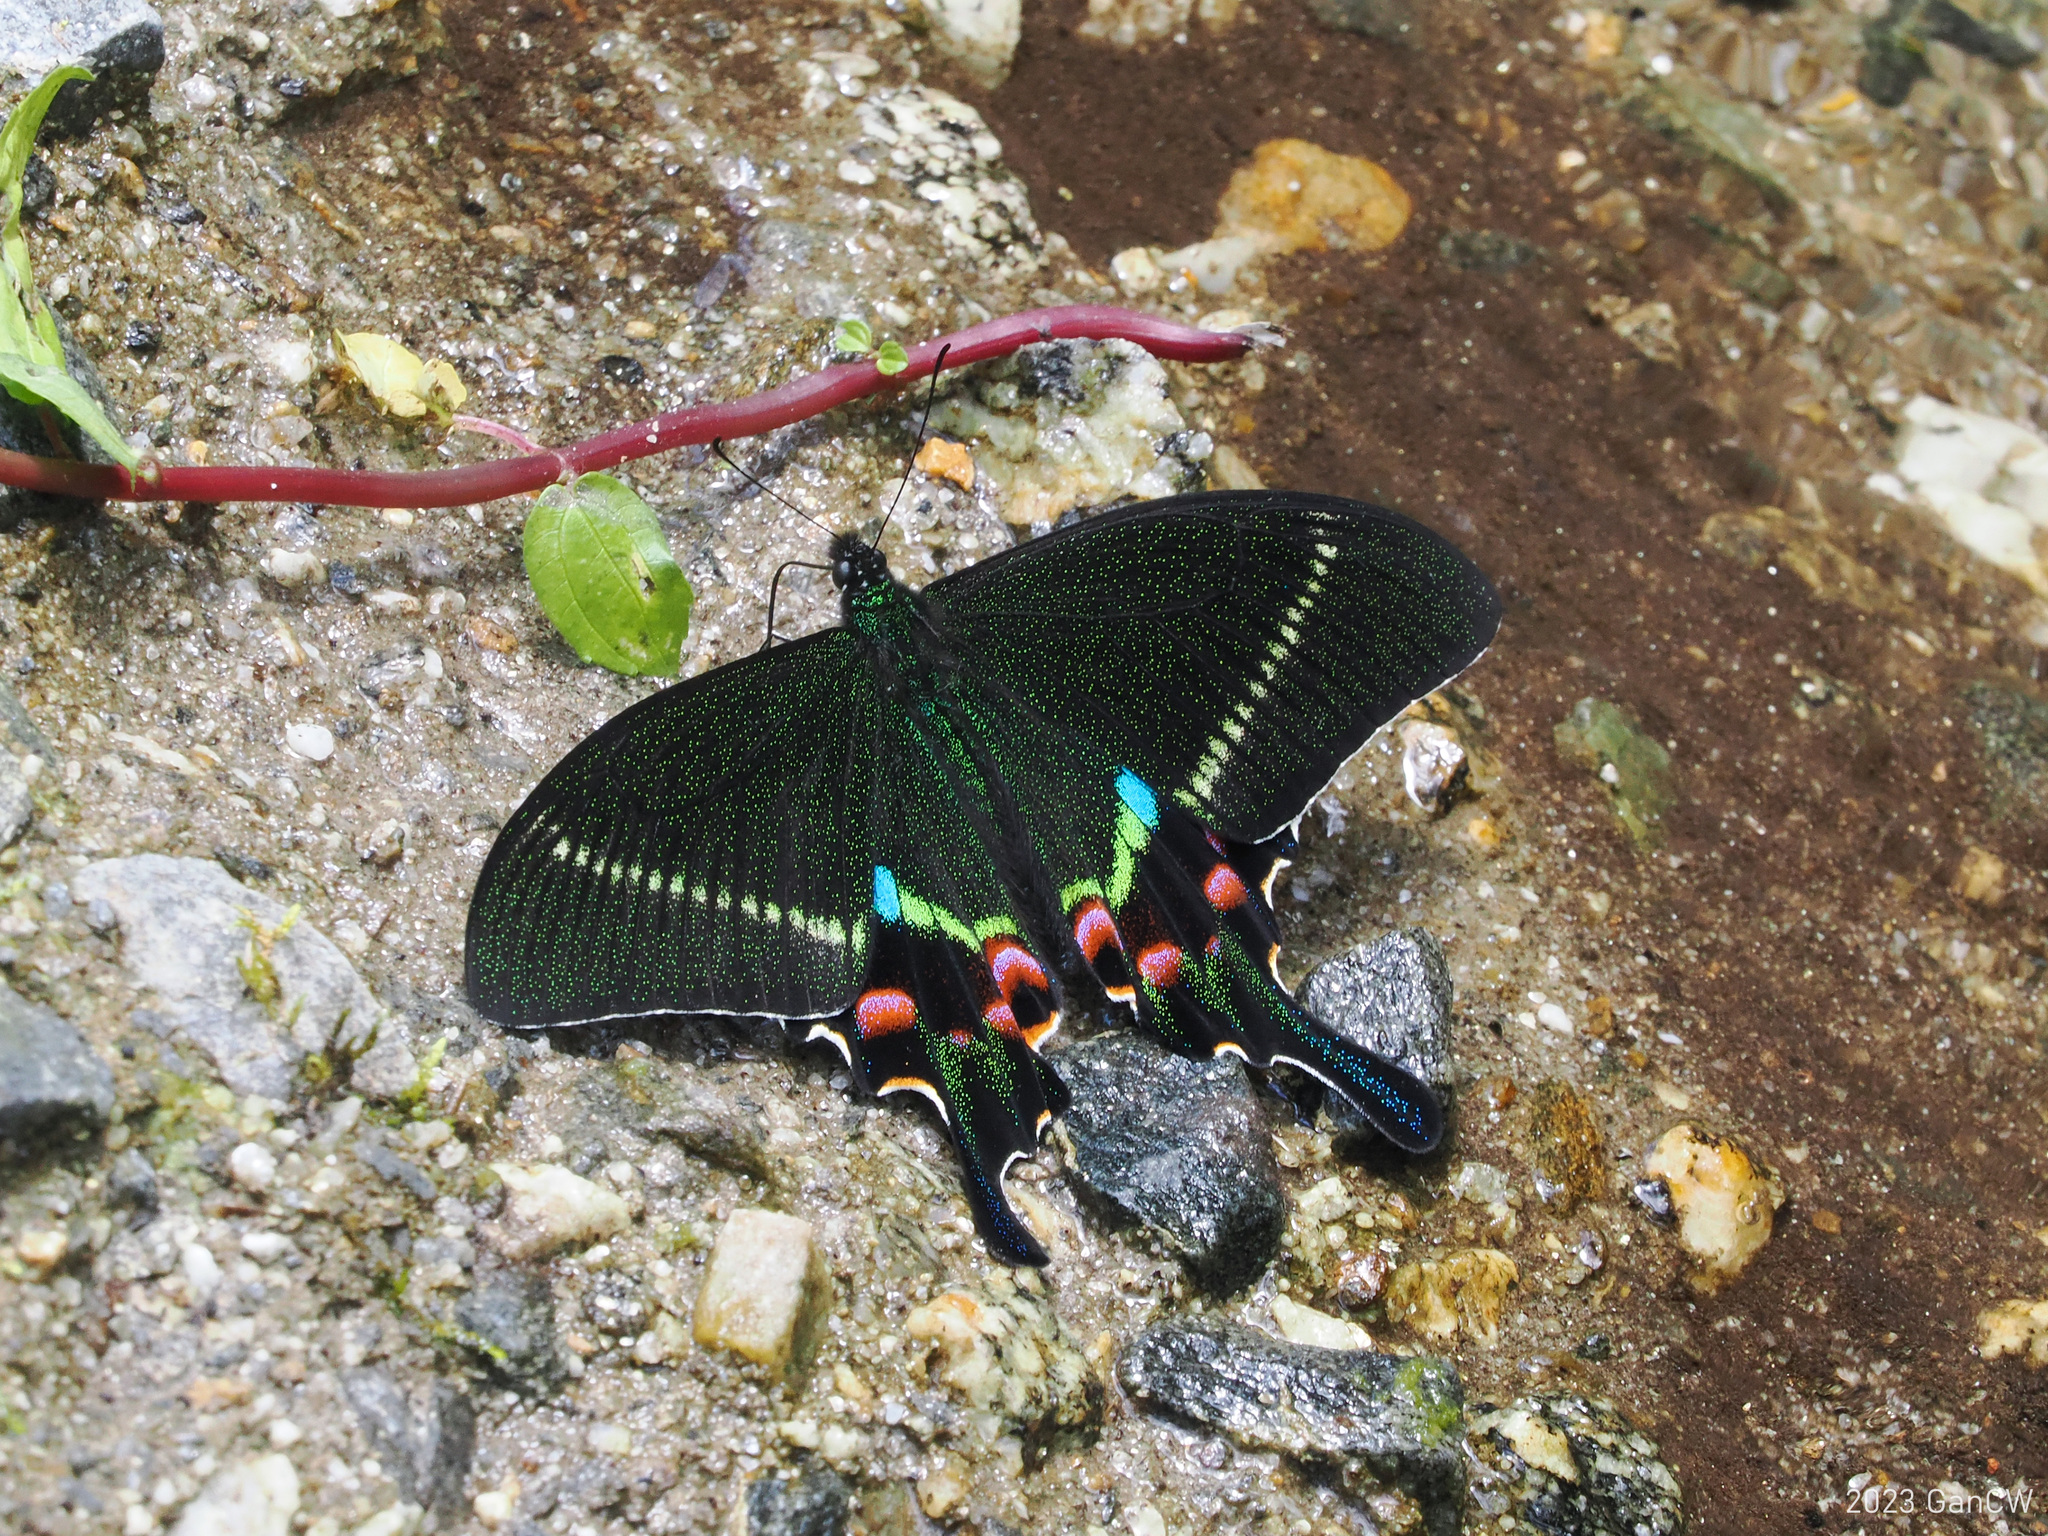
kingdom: Animalia
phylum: Arthropoda
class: Insecta
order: Lepidoptera
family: Papilionidae
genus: Papilio
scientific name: Papilio krishna
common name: Krishna peacock
